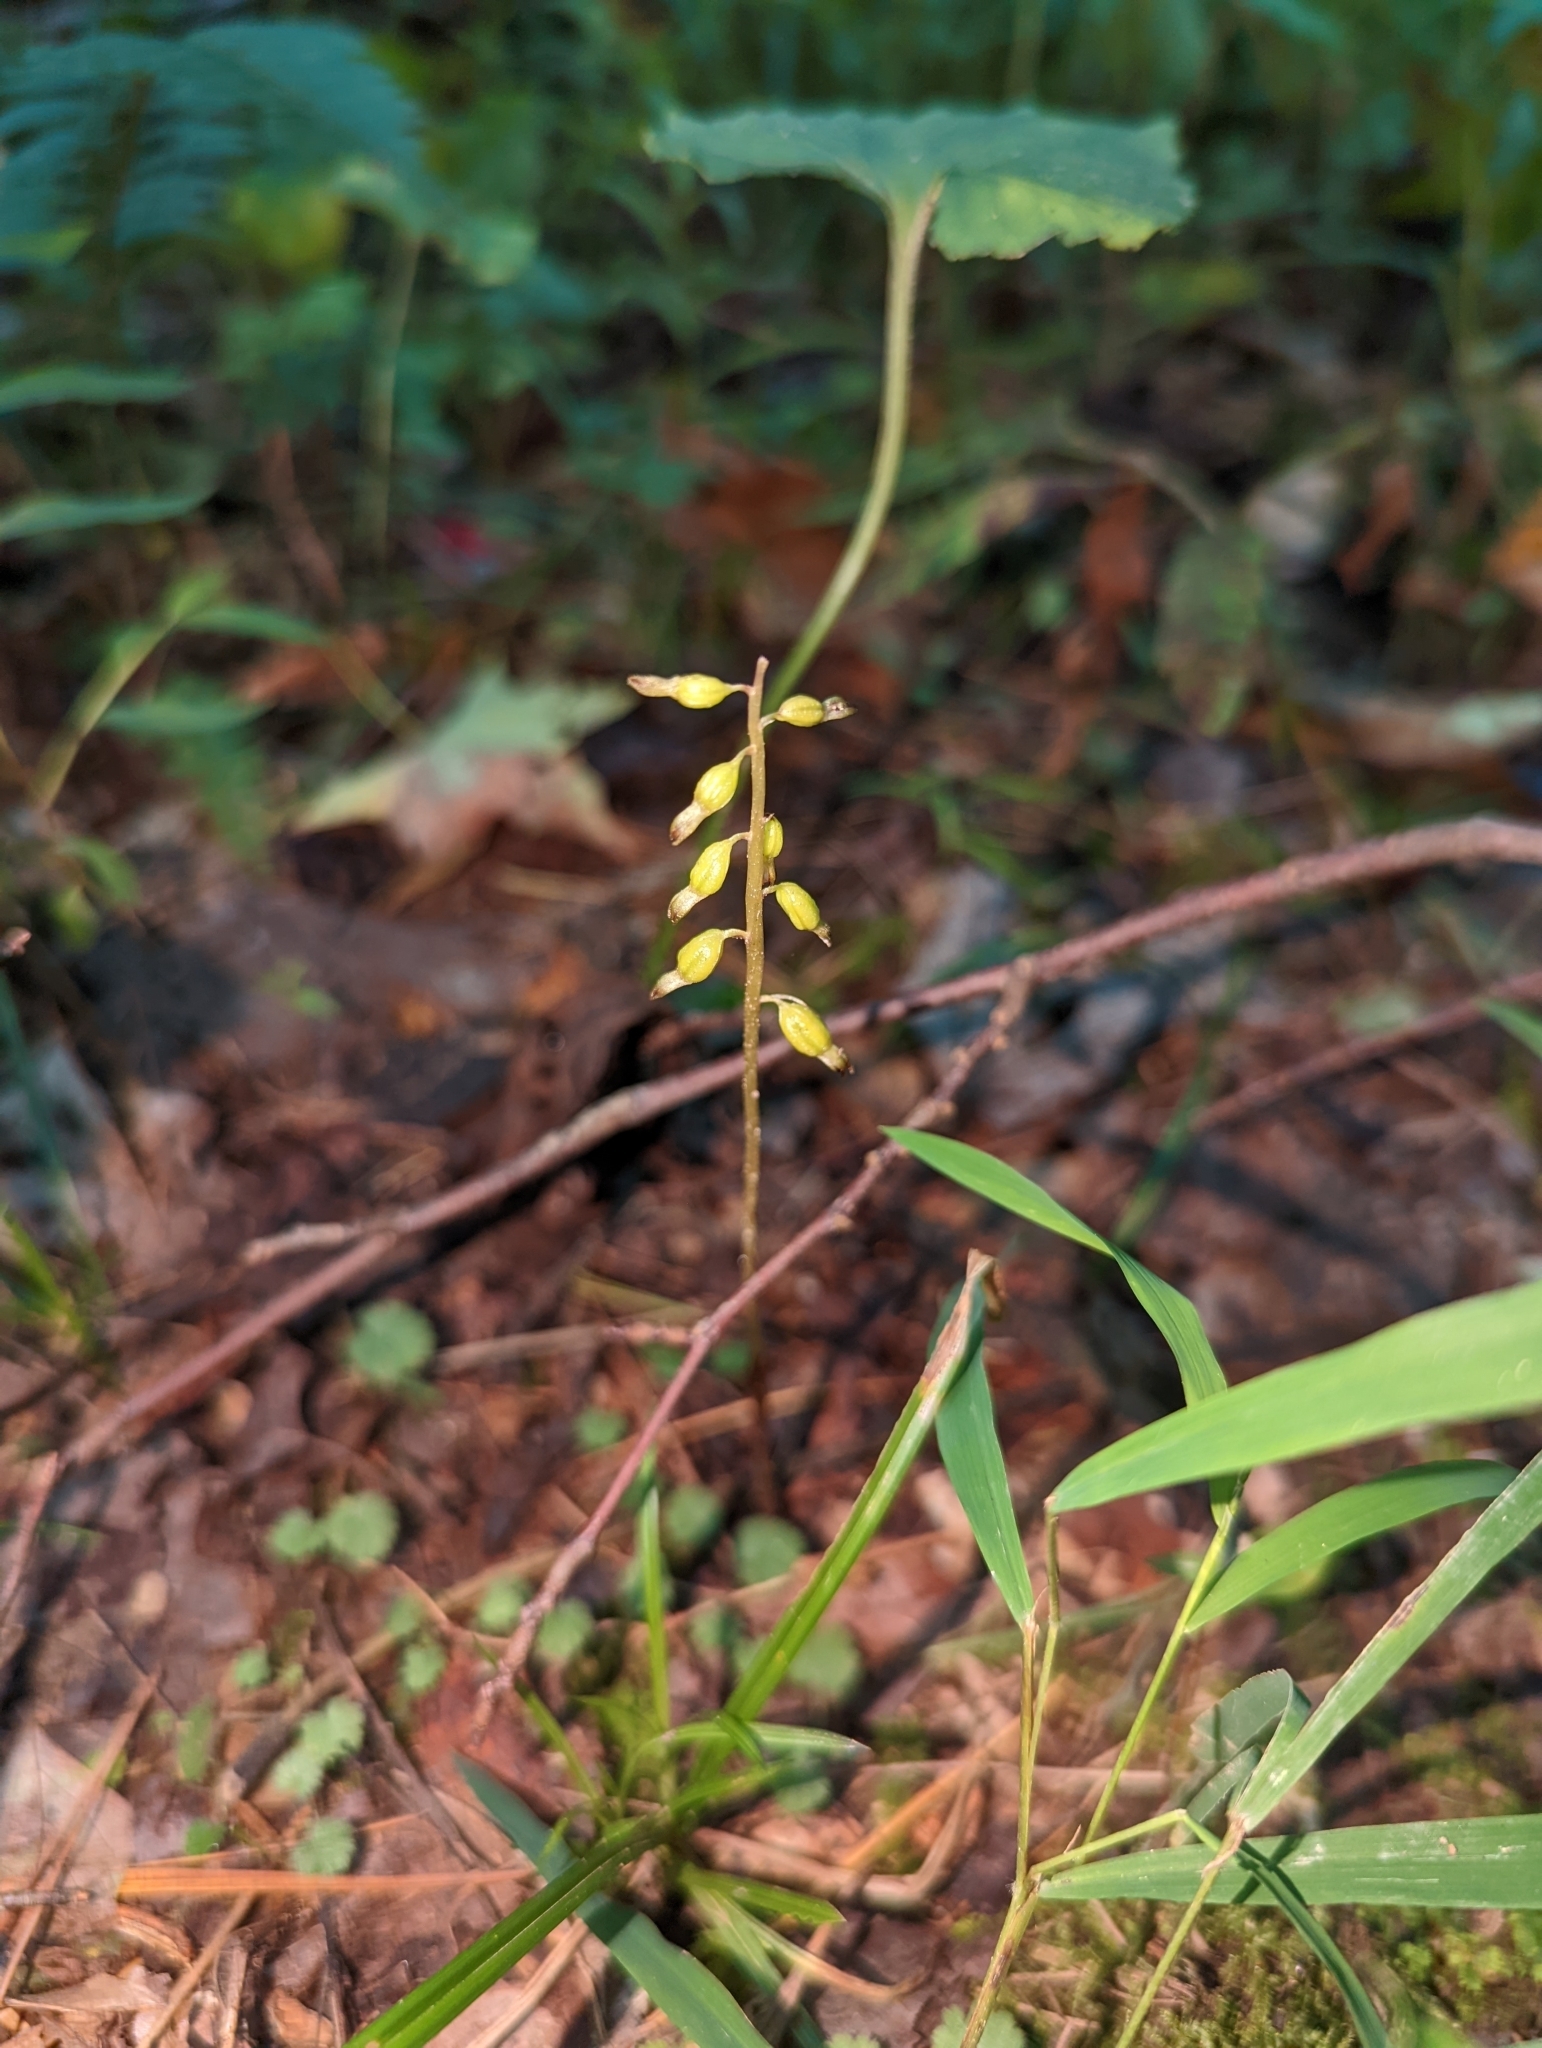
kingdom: Plantae
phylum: Tracheophyta
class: Liliopsida
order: Asparagales
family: Orchidaceae
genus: Corallorhiza
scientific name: Corallorhiza odontorhiza
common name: Autumn coralroot
